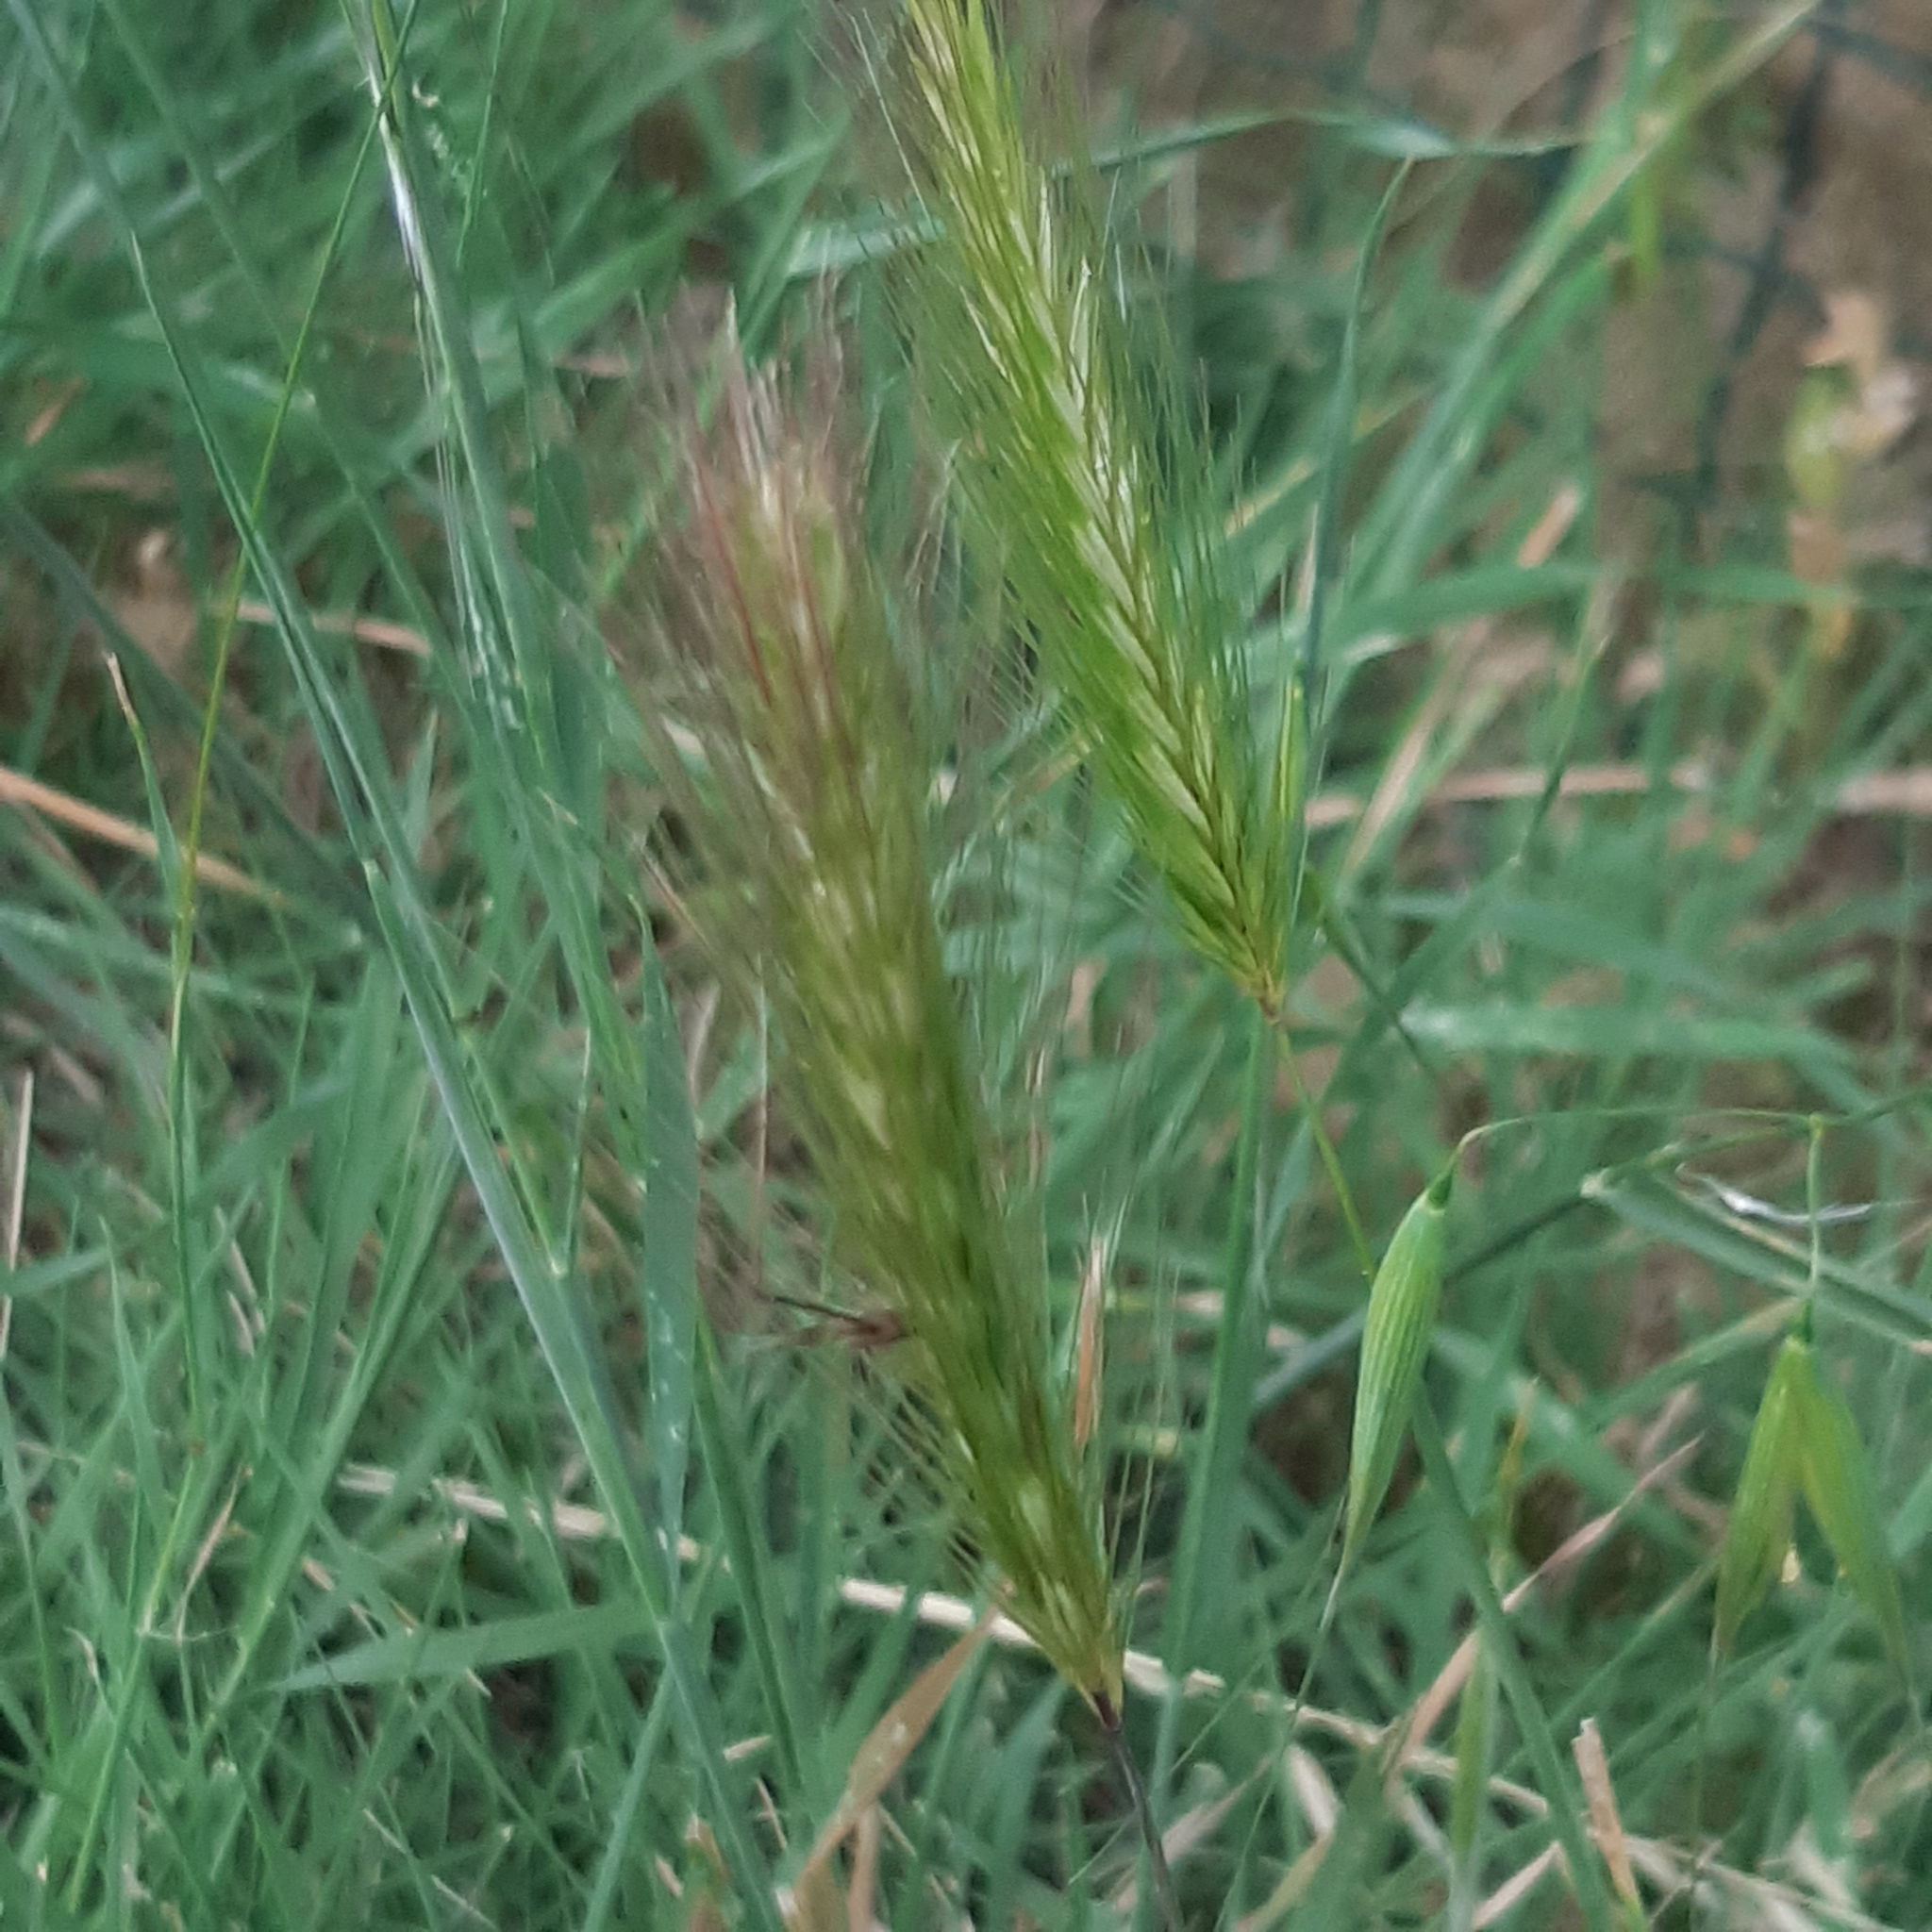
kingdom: Plantae
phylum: Tracheophyta
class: Liliopsida
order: Poales
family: Poaceae
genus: Hordeum
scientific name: Hordeum murinum
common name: Wall barley
